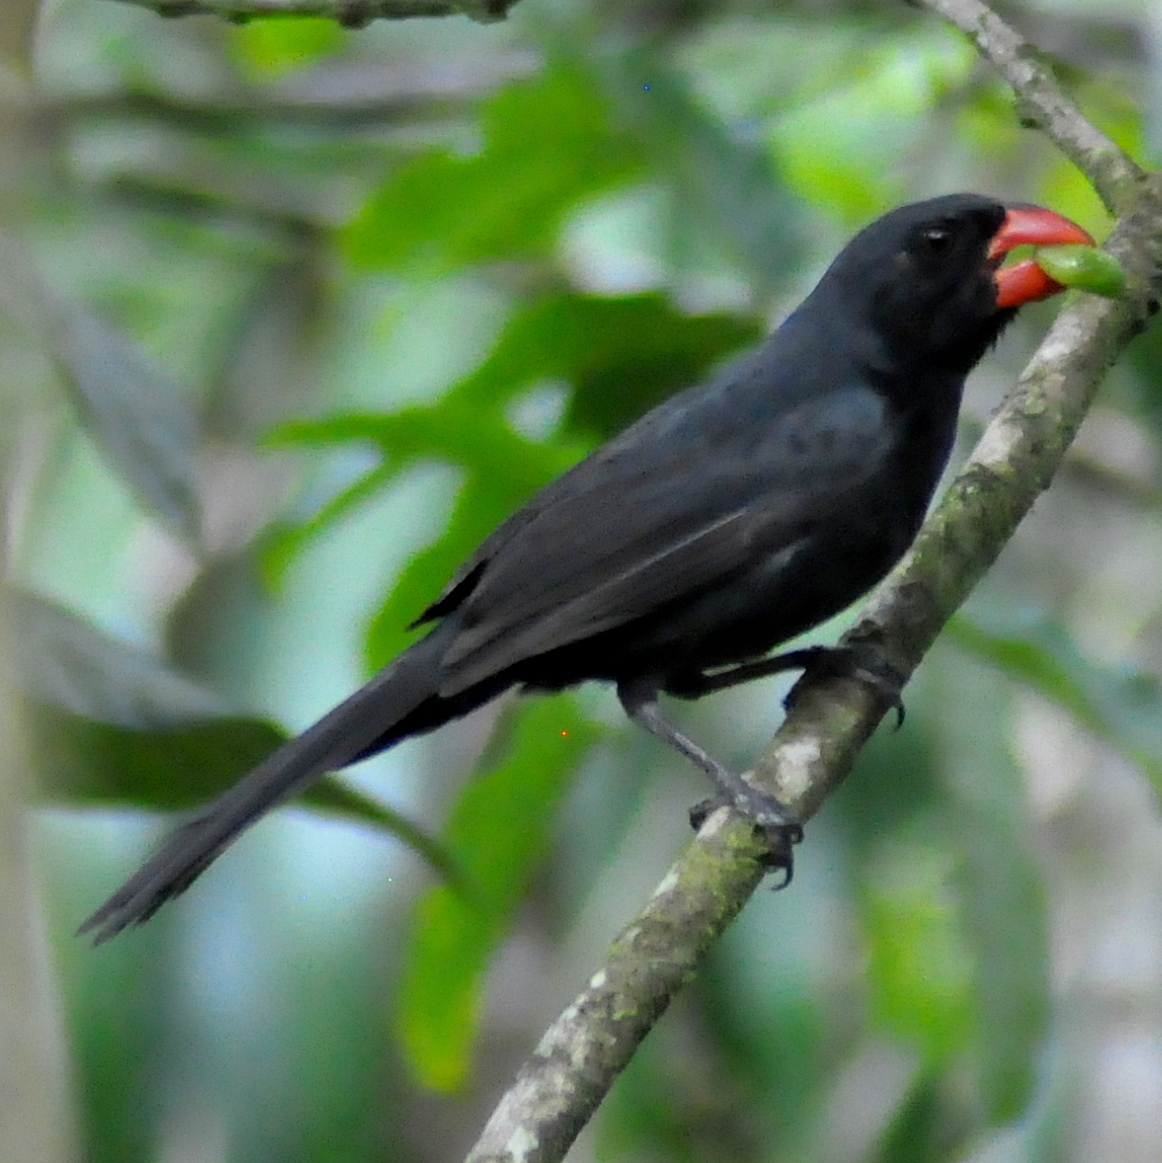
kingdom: Animalia
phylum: Chordata
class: Aves
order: Passeriformes
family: Thraupidae
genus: Saltator
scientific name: Saltator fuliginosus
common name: Black-throated grosbeak
